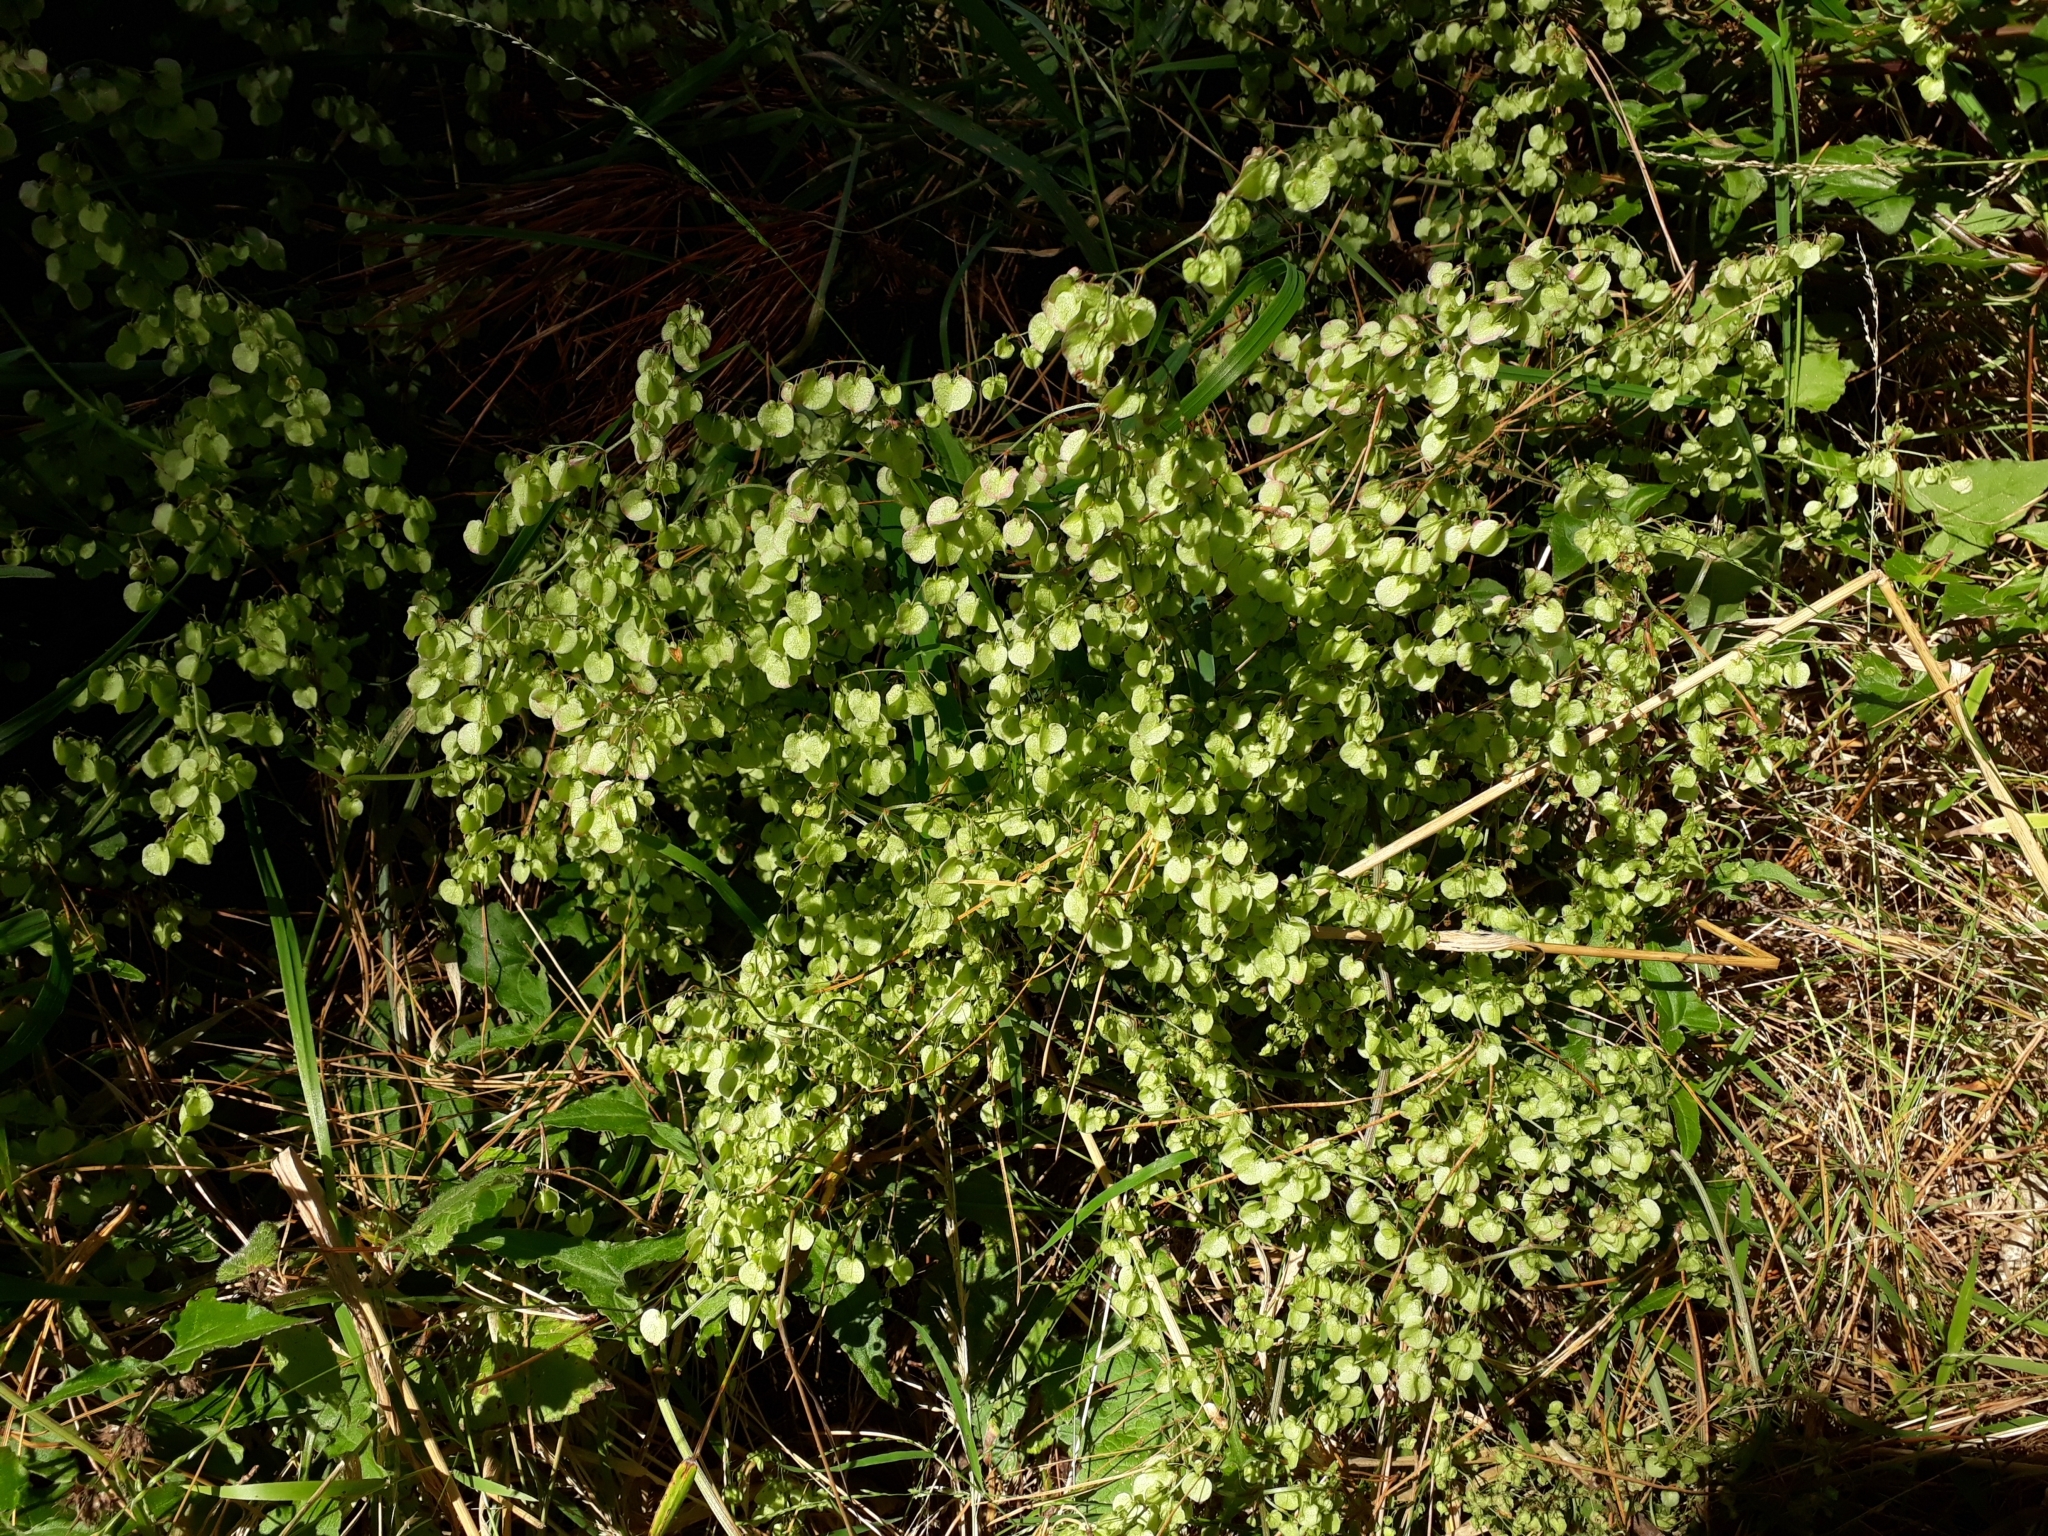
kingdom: Plantae
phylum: Tracheophyta
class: Magnoliopsida
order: Caryophyllales
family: Polygonaceae
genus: Rumex
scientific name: Rumex sagittatus
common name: Climbing dock
